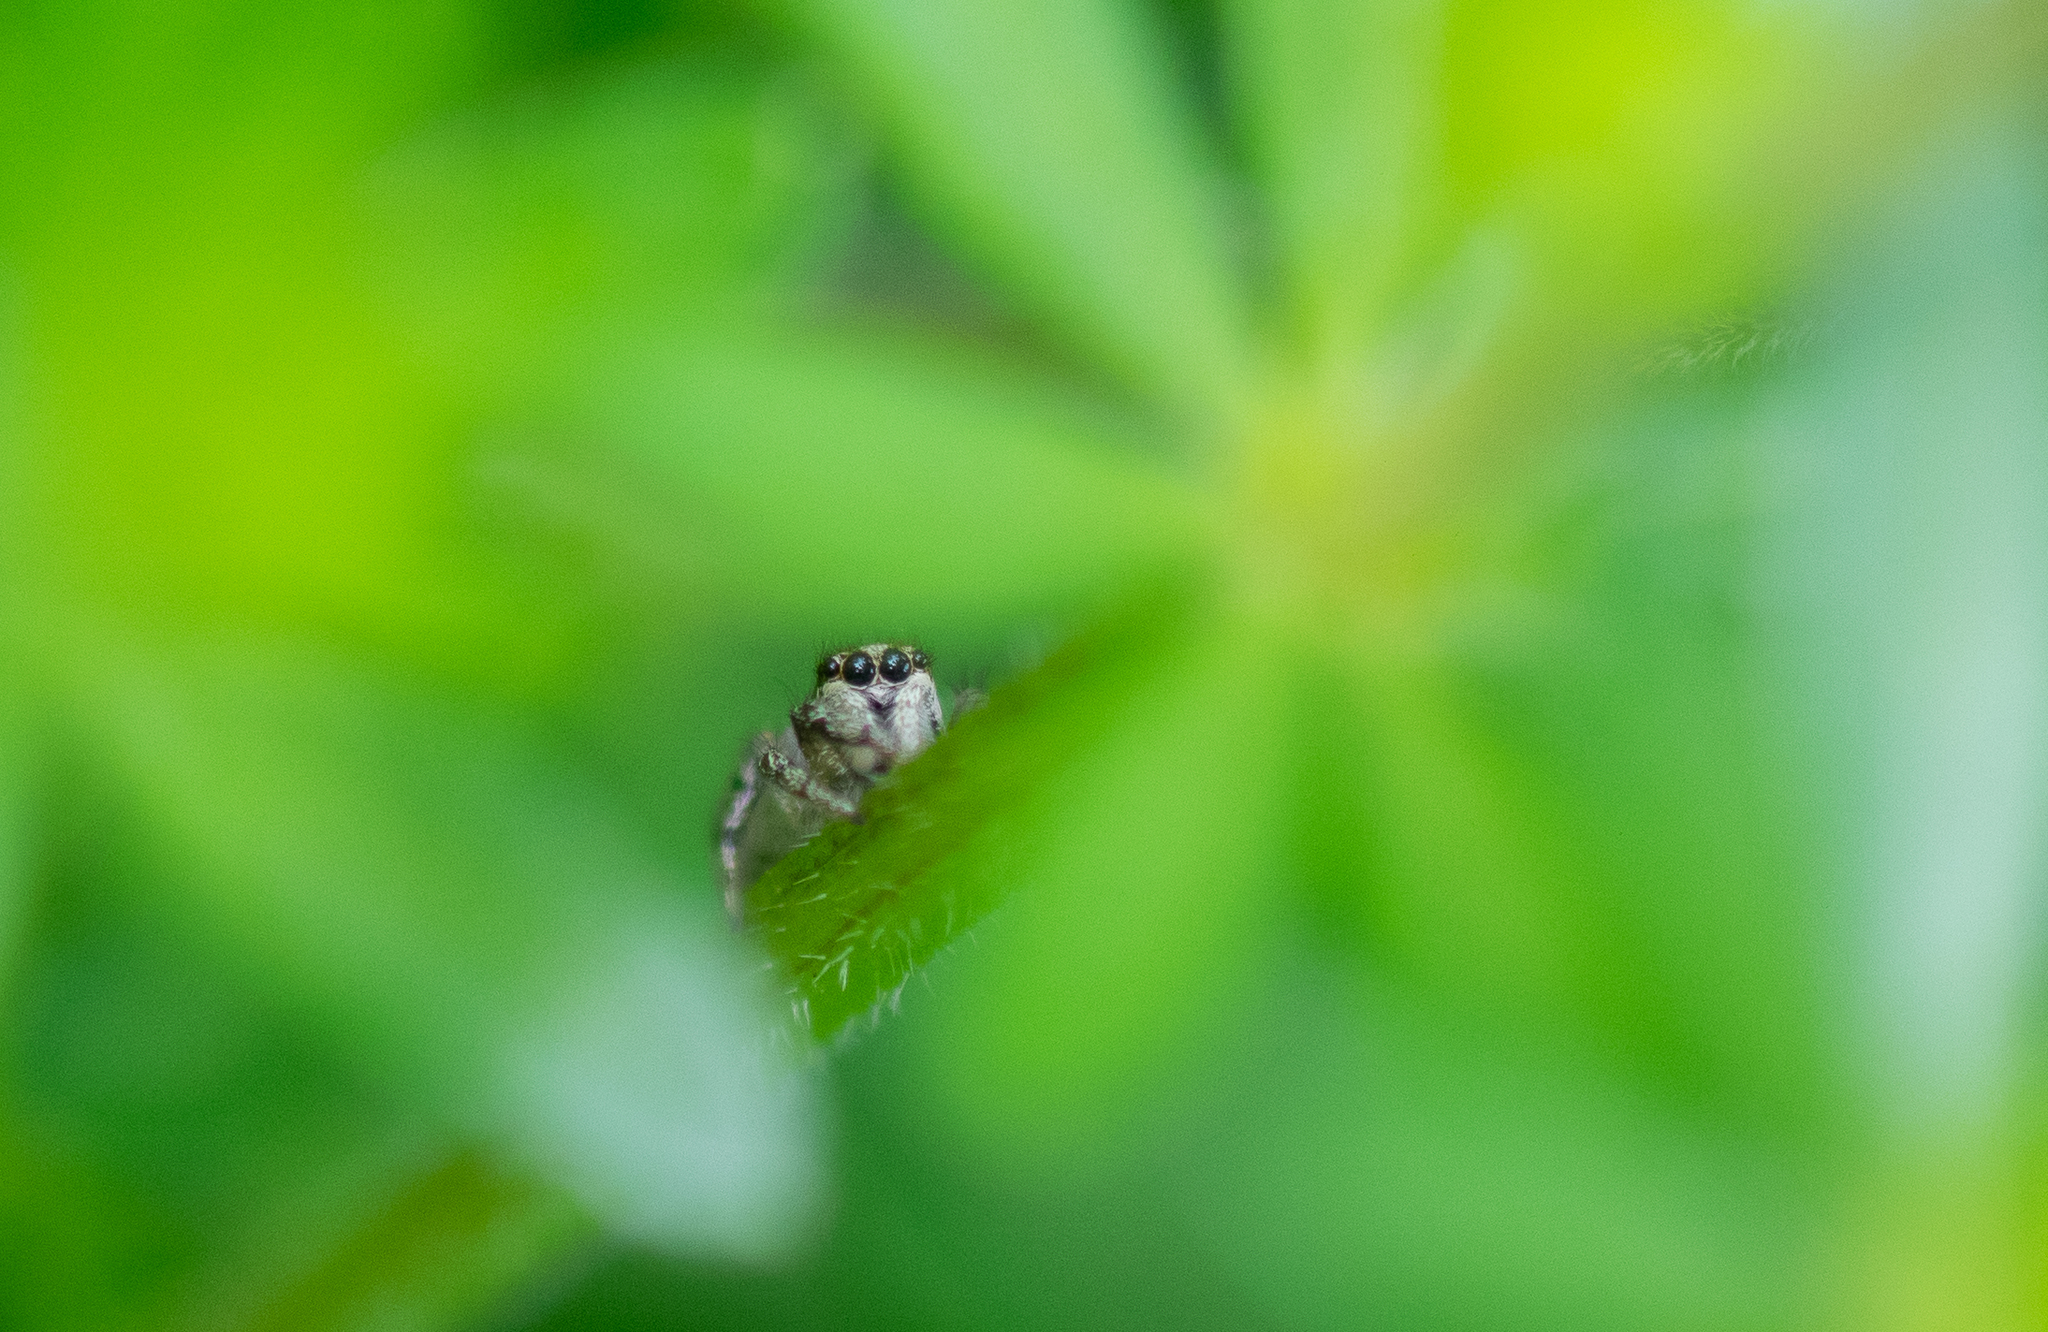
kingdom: Animalia
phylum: Arthropoda
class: Arachnida
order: Araneae
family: Salticidae
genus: Salticus
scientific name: Salticus scenicus
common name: Zebra jumper
